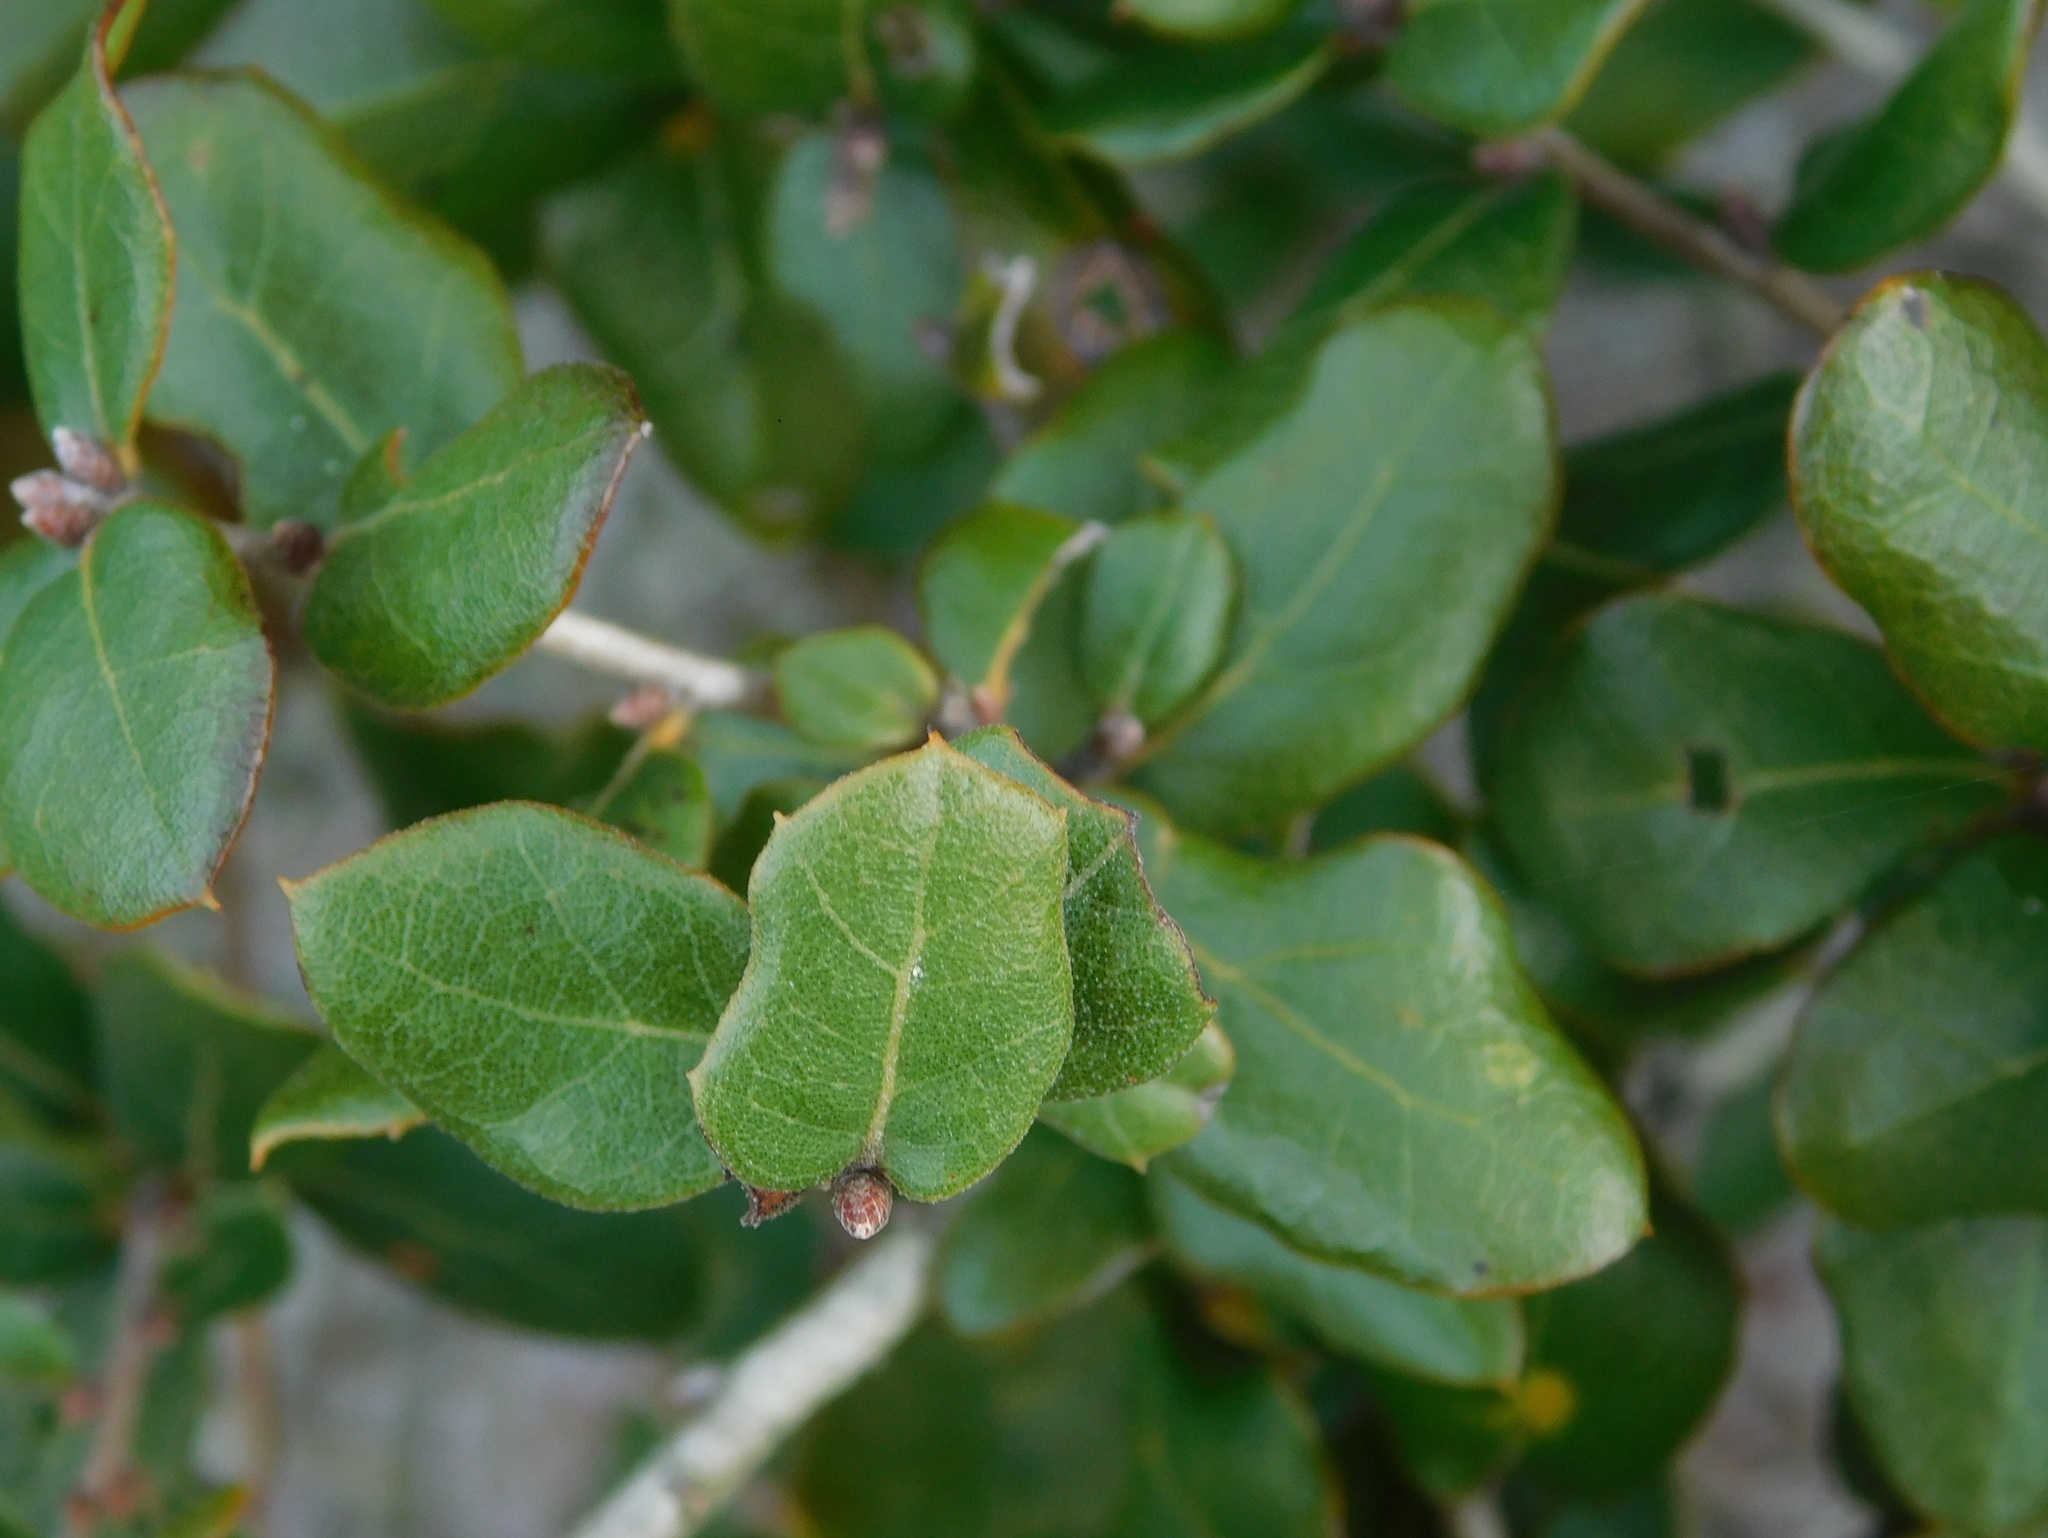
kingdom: Plantae
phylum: Tracheophyta
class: Magnoliopsida
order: Fagales
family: Fagaceae
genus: Quercus
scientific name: Quercus myrtifolia
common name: Myrtle oak
